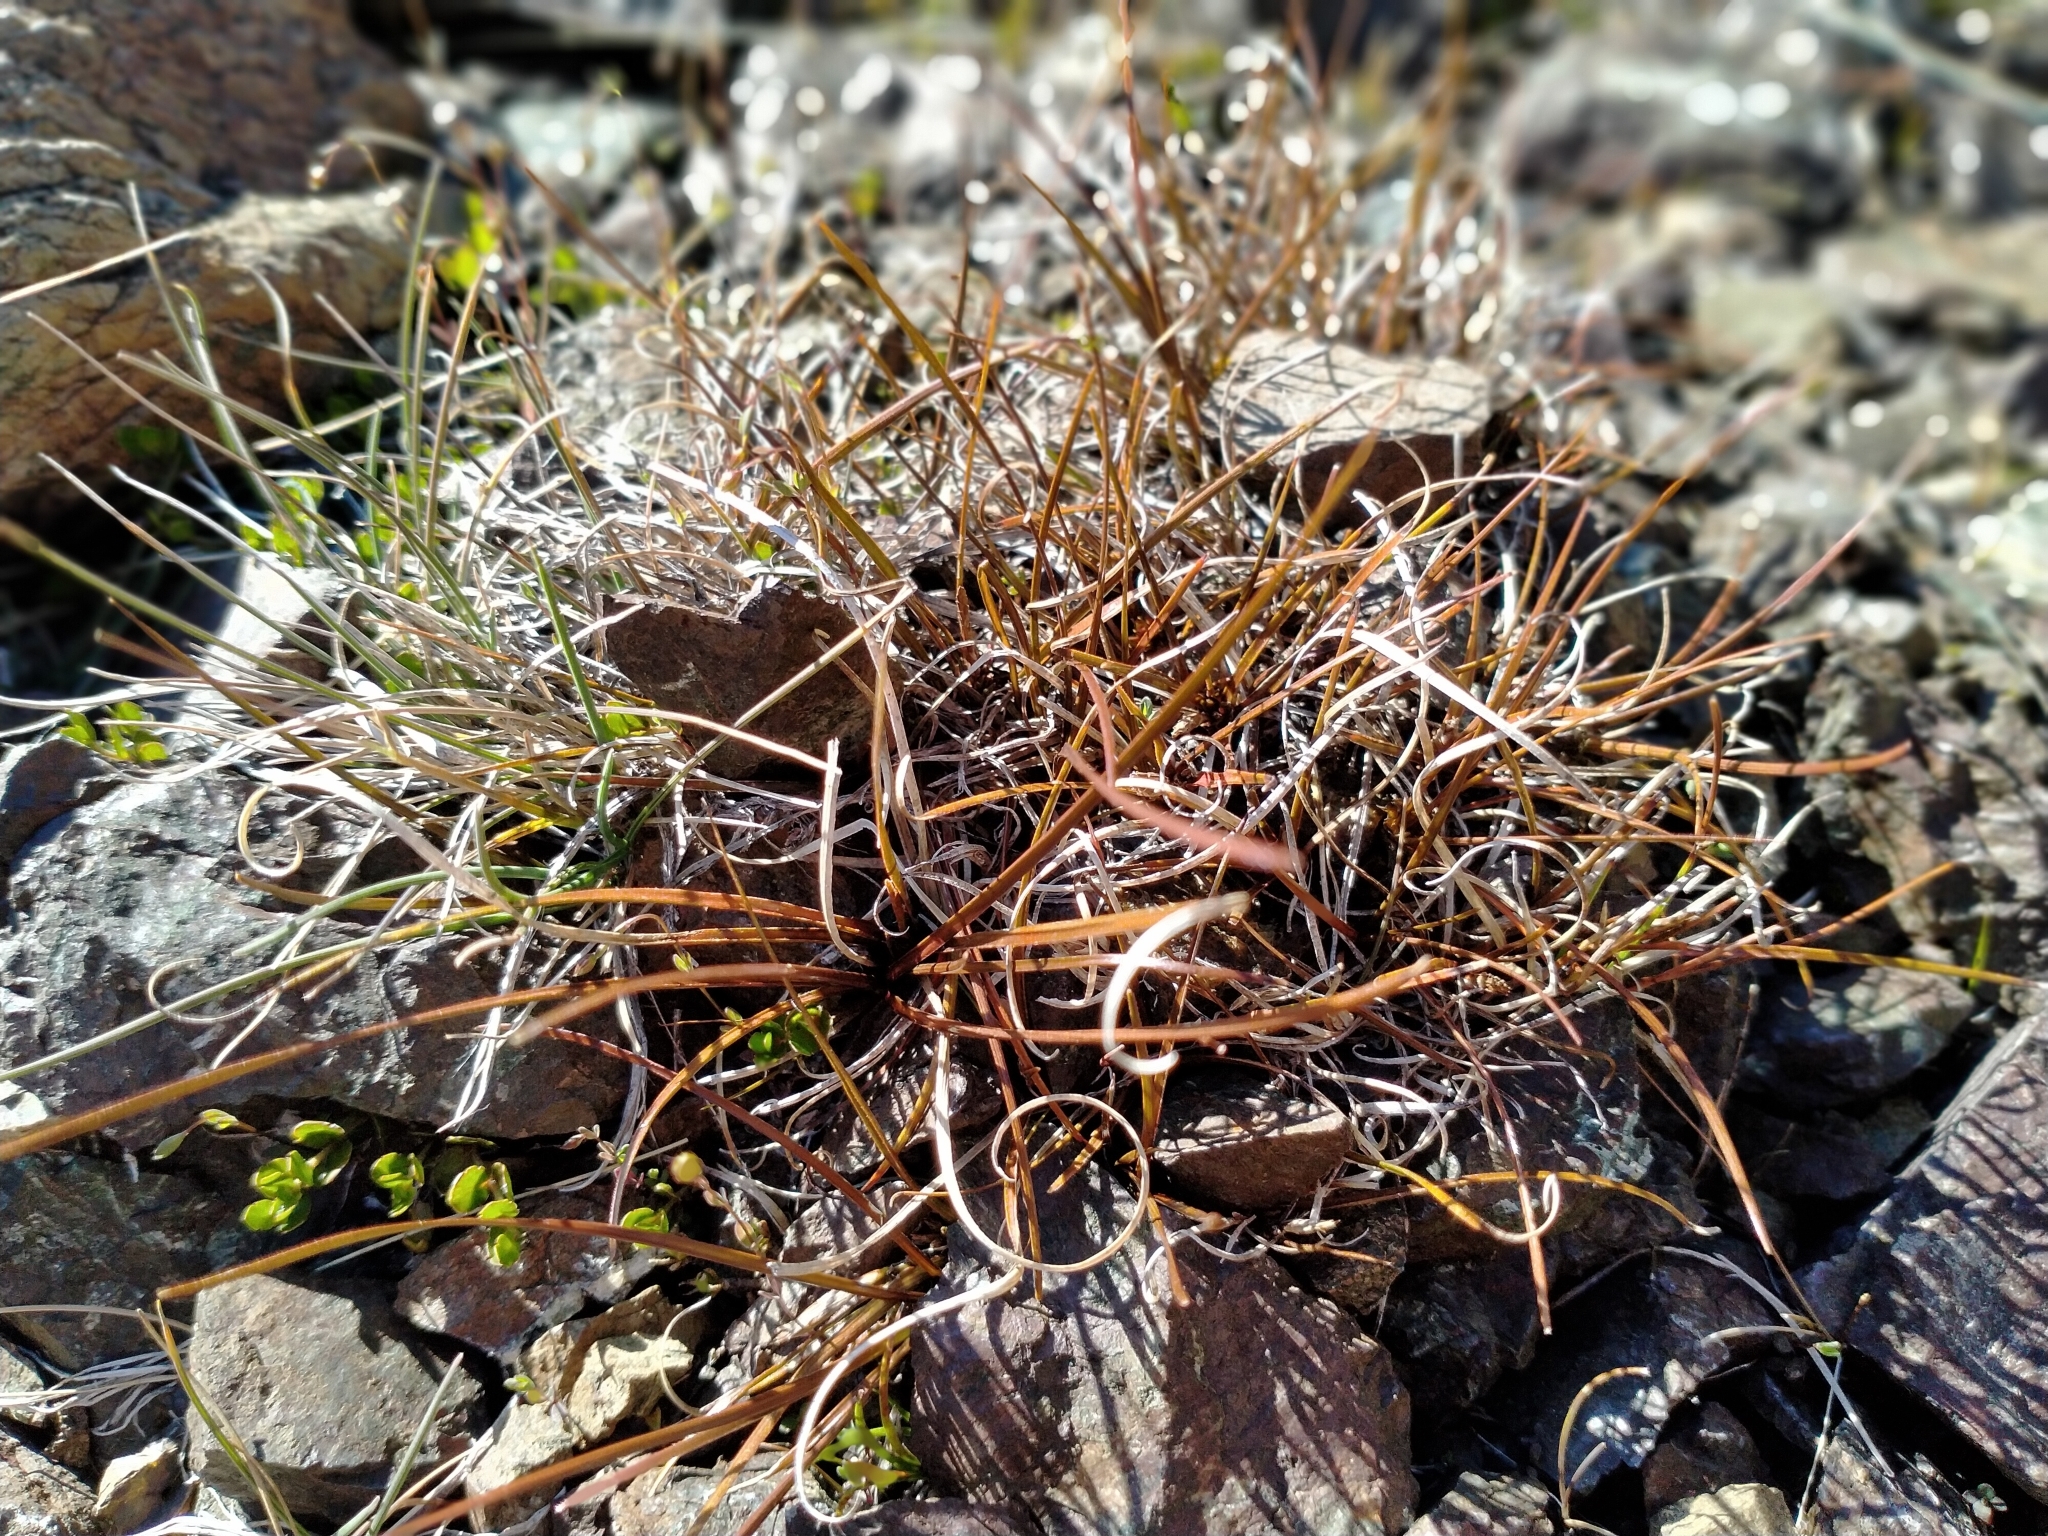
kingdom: Plantae
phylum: Tracheophyta
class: Liliopsida
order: Poales
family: Cyperaceae
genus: Carex
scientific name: Carex uncifolia
